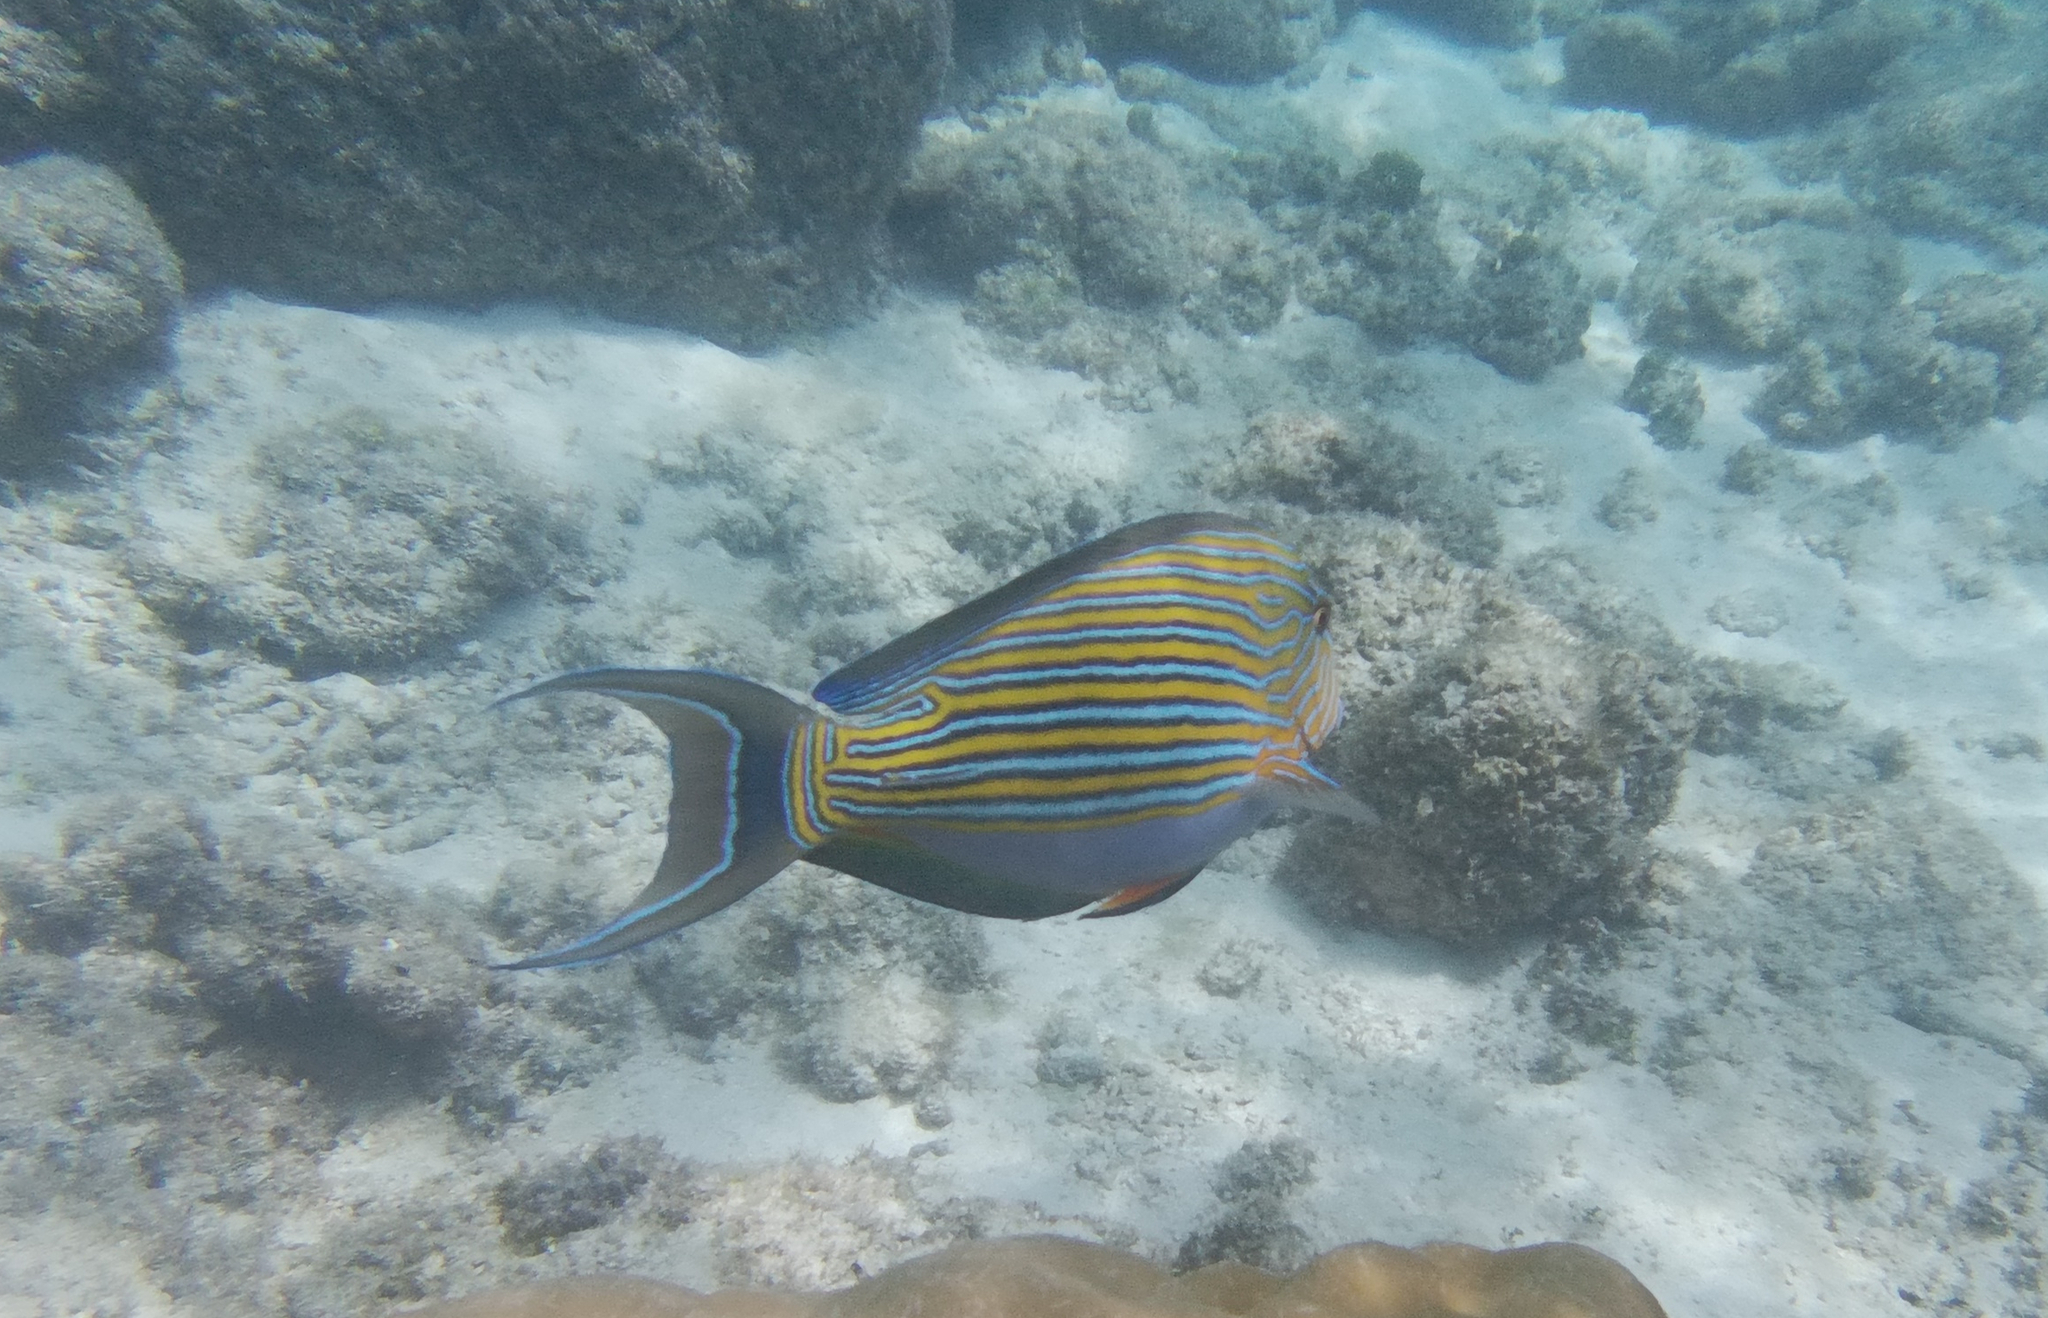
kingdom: Animalia
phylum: Chordata
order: Perciformes
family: Acanthuridae
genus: Acanthurus
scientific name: Acanthurus lineatus
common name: Striped surgeonfish
